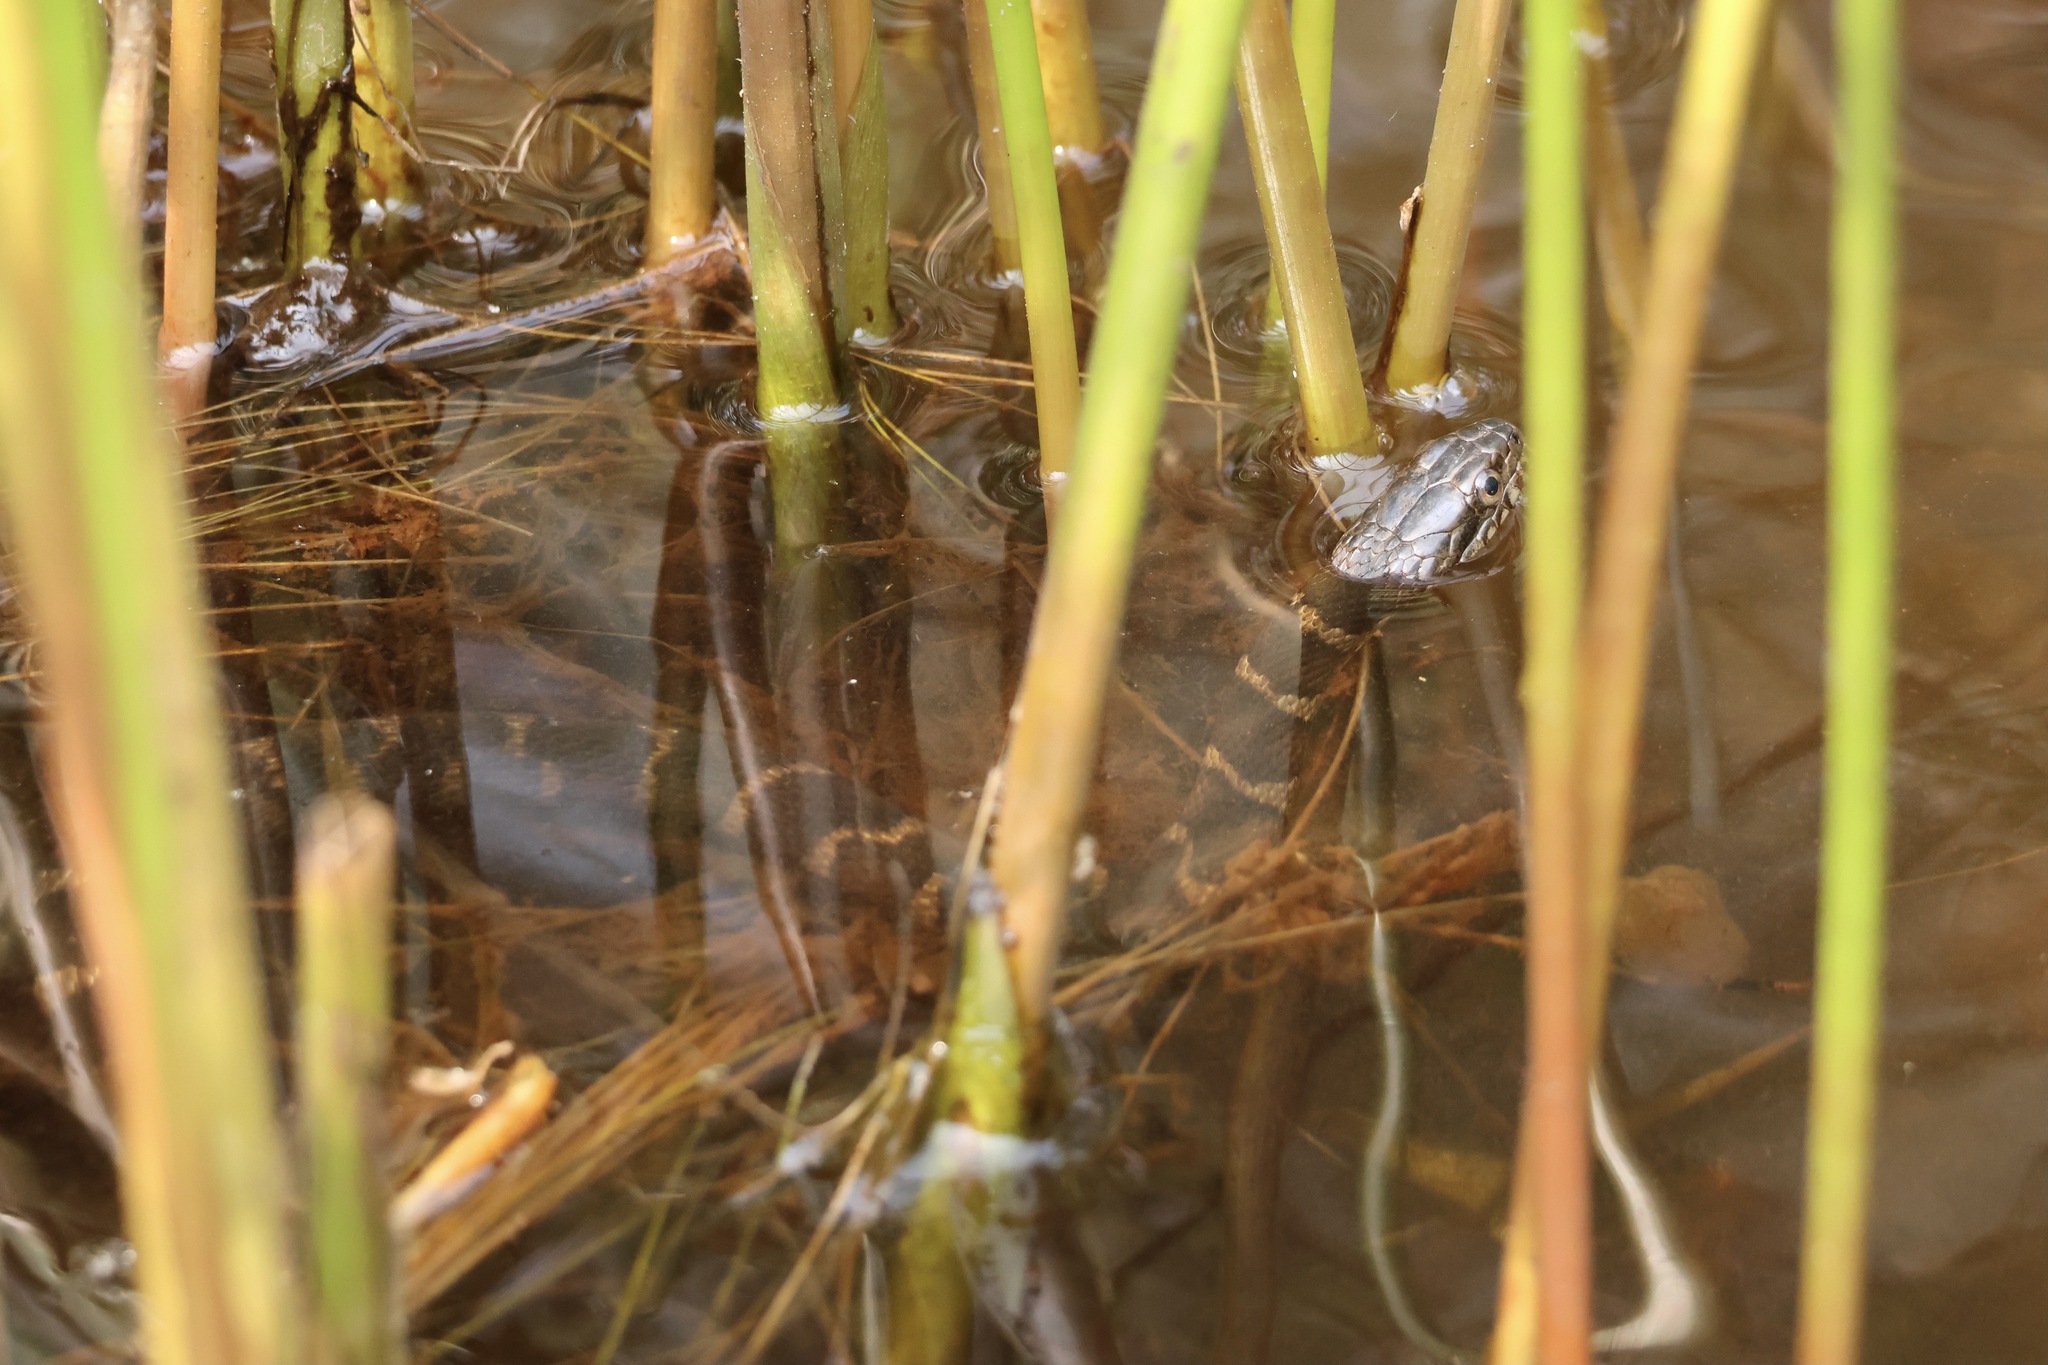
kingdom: Animalia
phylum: Chordata
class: Squamata
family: Colubridae
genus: Nerodia
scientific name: Nerodia sipedon
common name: Northern water snake
